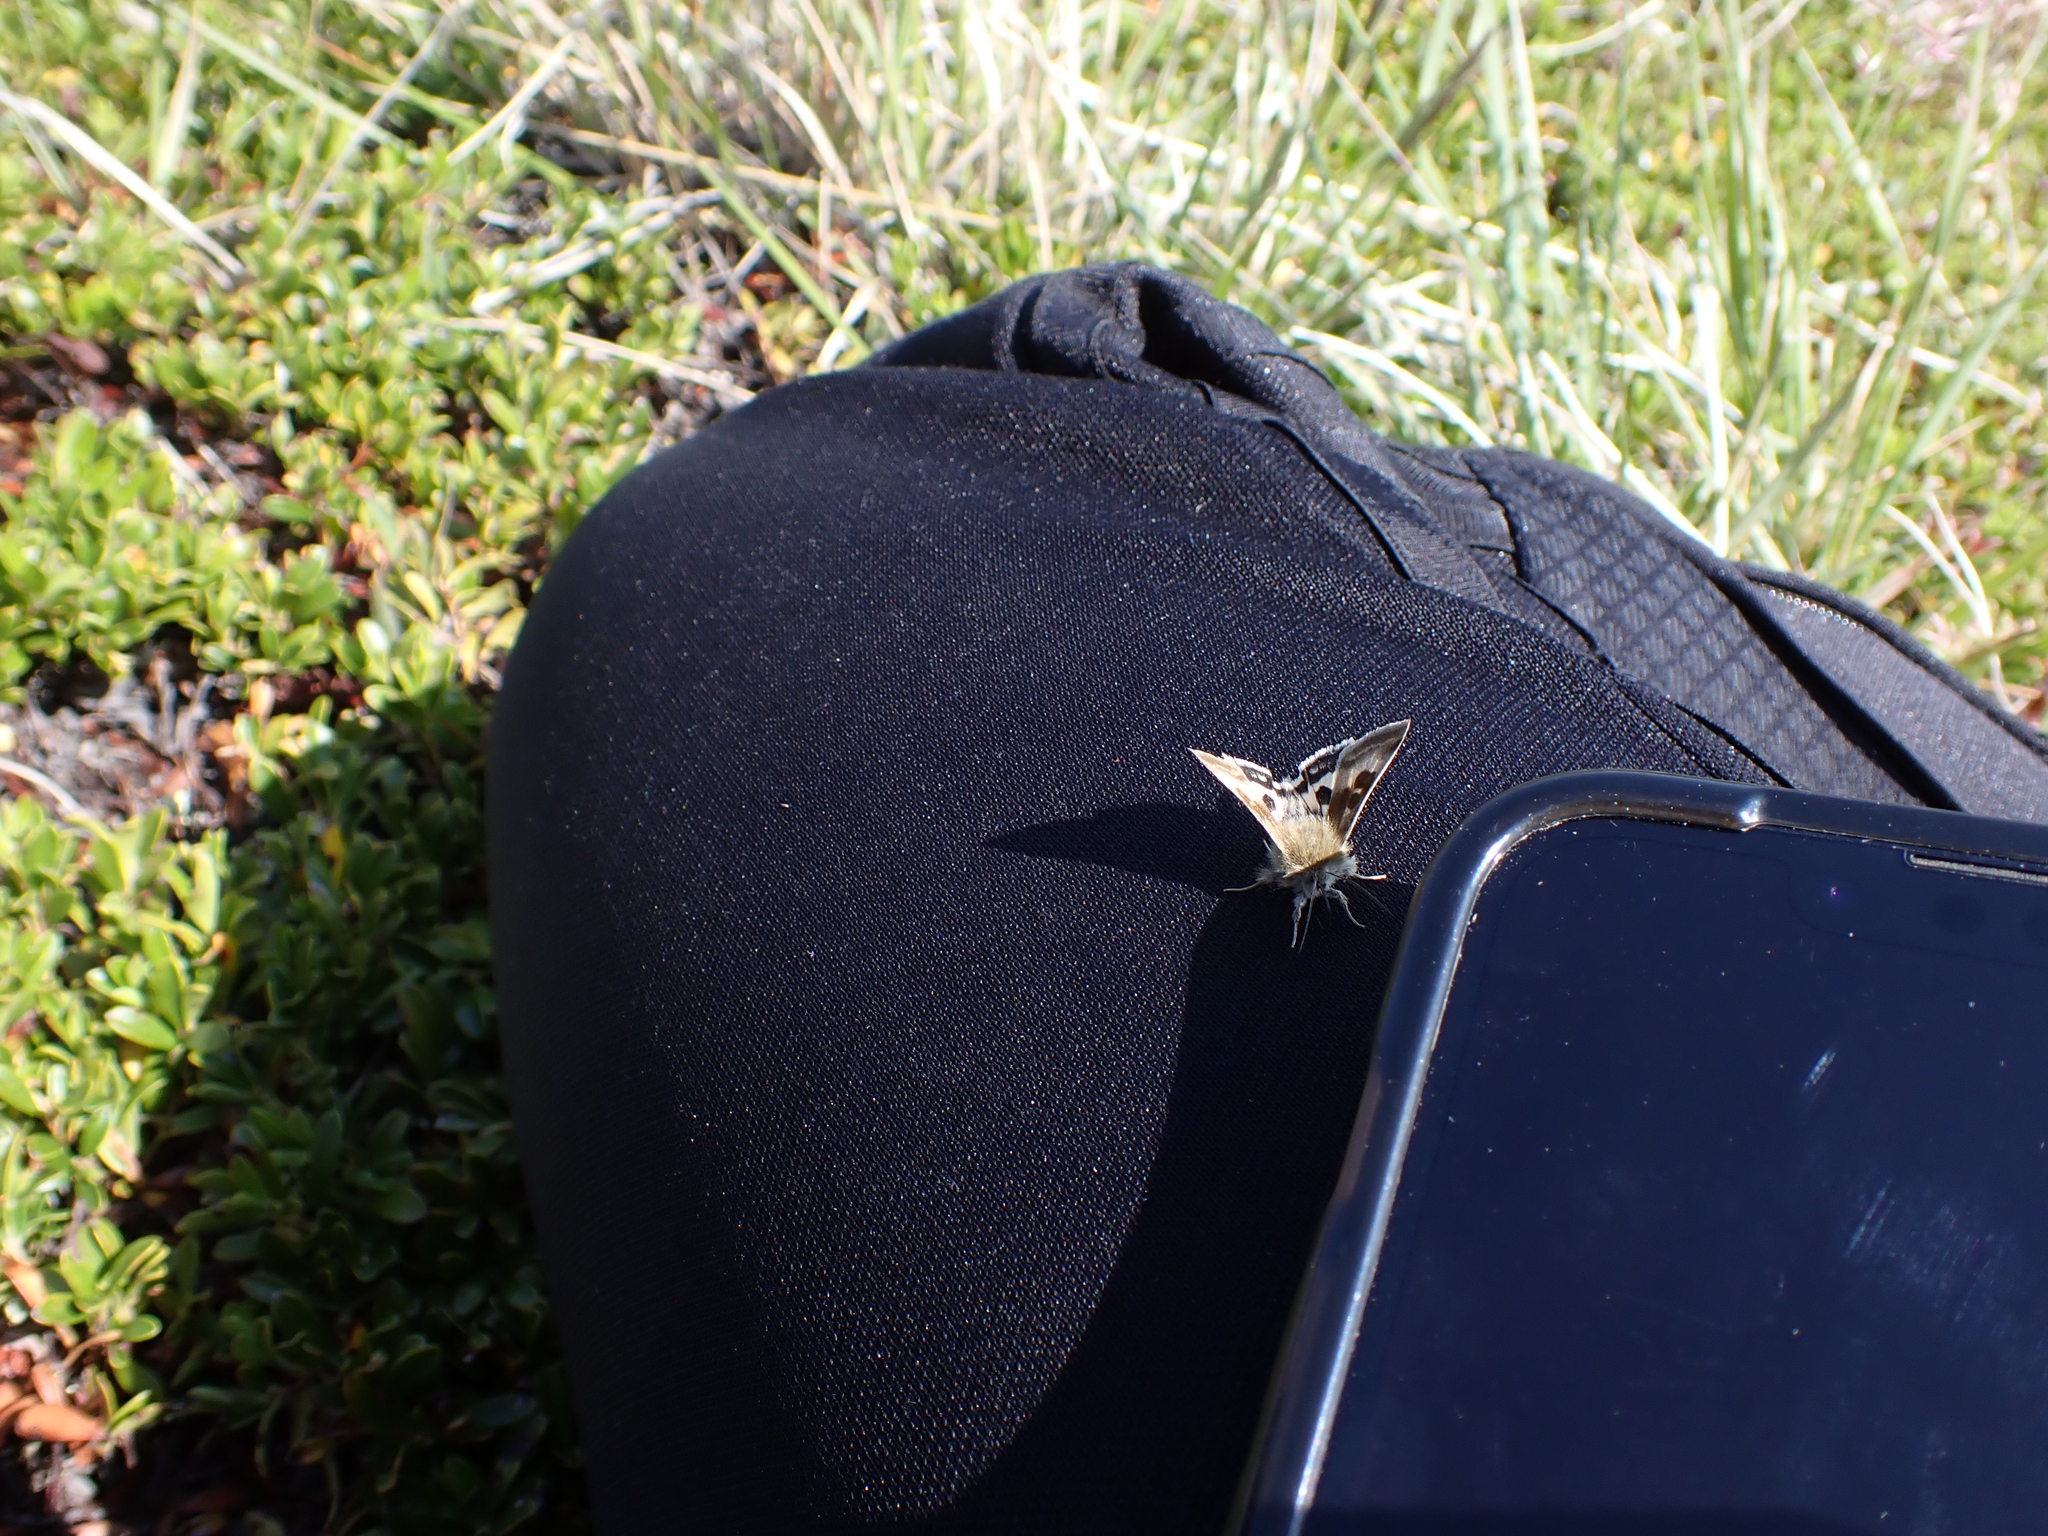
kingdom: Animalia
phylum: Arthropoda
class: Insecta
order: Lepidoptera
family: Noctuidae
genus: Heliothis
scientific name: Heliothis oregonica
